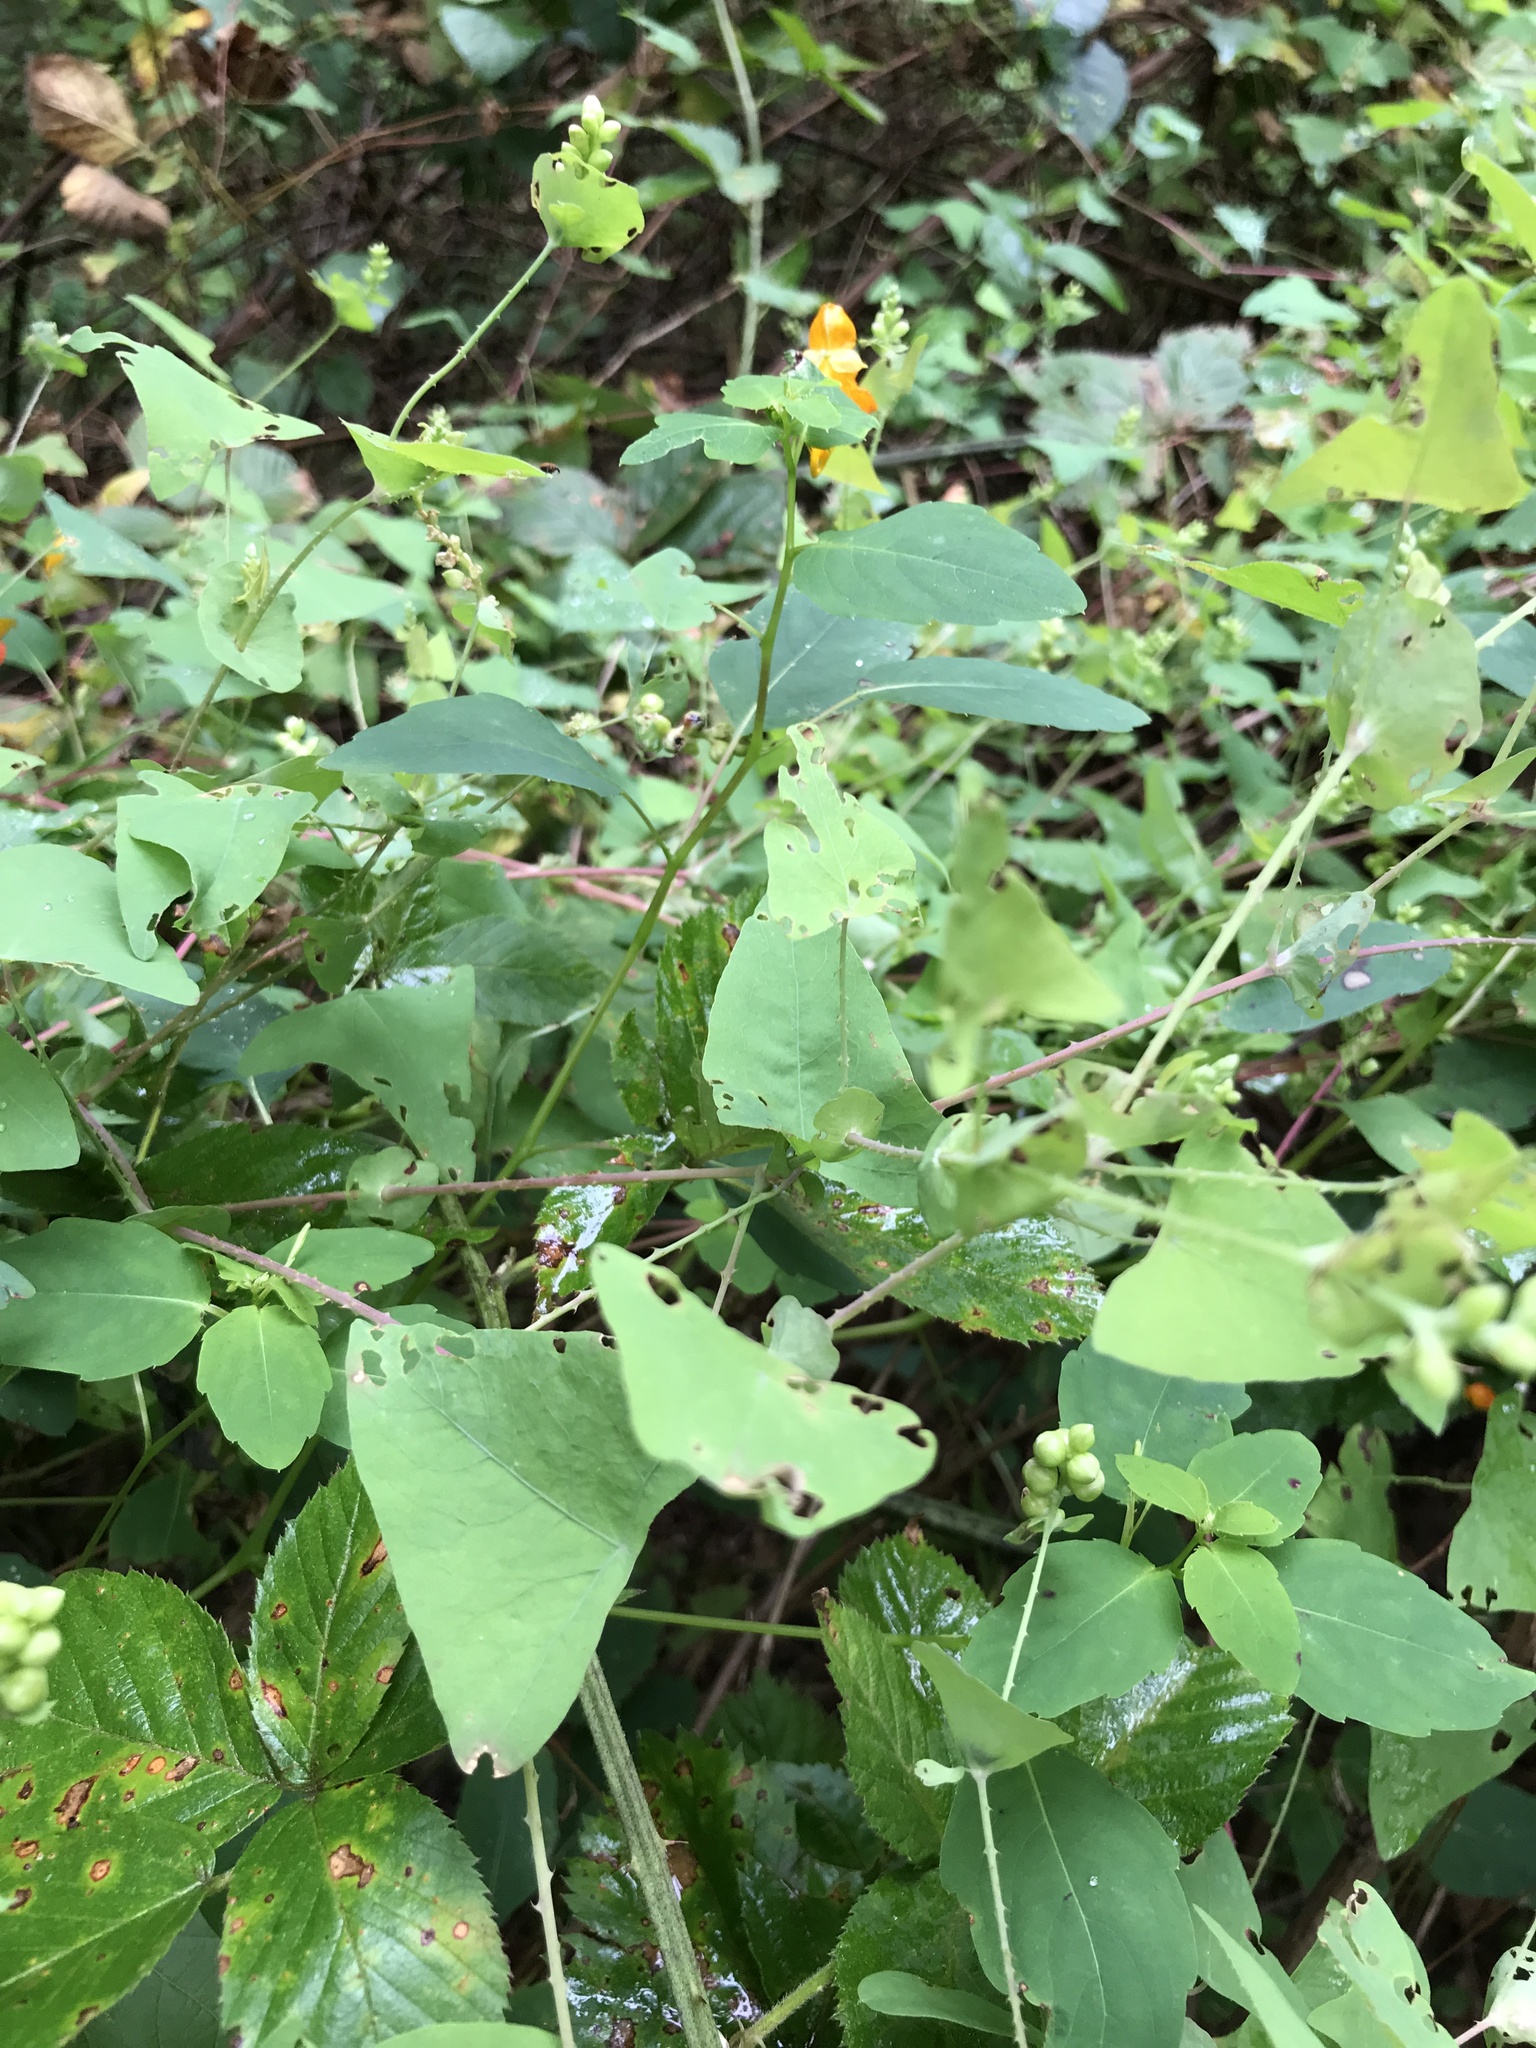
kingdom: Plantae
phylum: Tracheophyta
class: Magnoliopsida
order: Caryophyllales
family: Polygonaceae
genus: Persicaria
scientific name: Persicaria perfoliata
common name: Asiatic tearthumb
